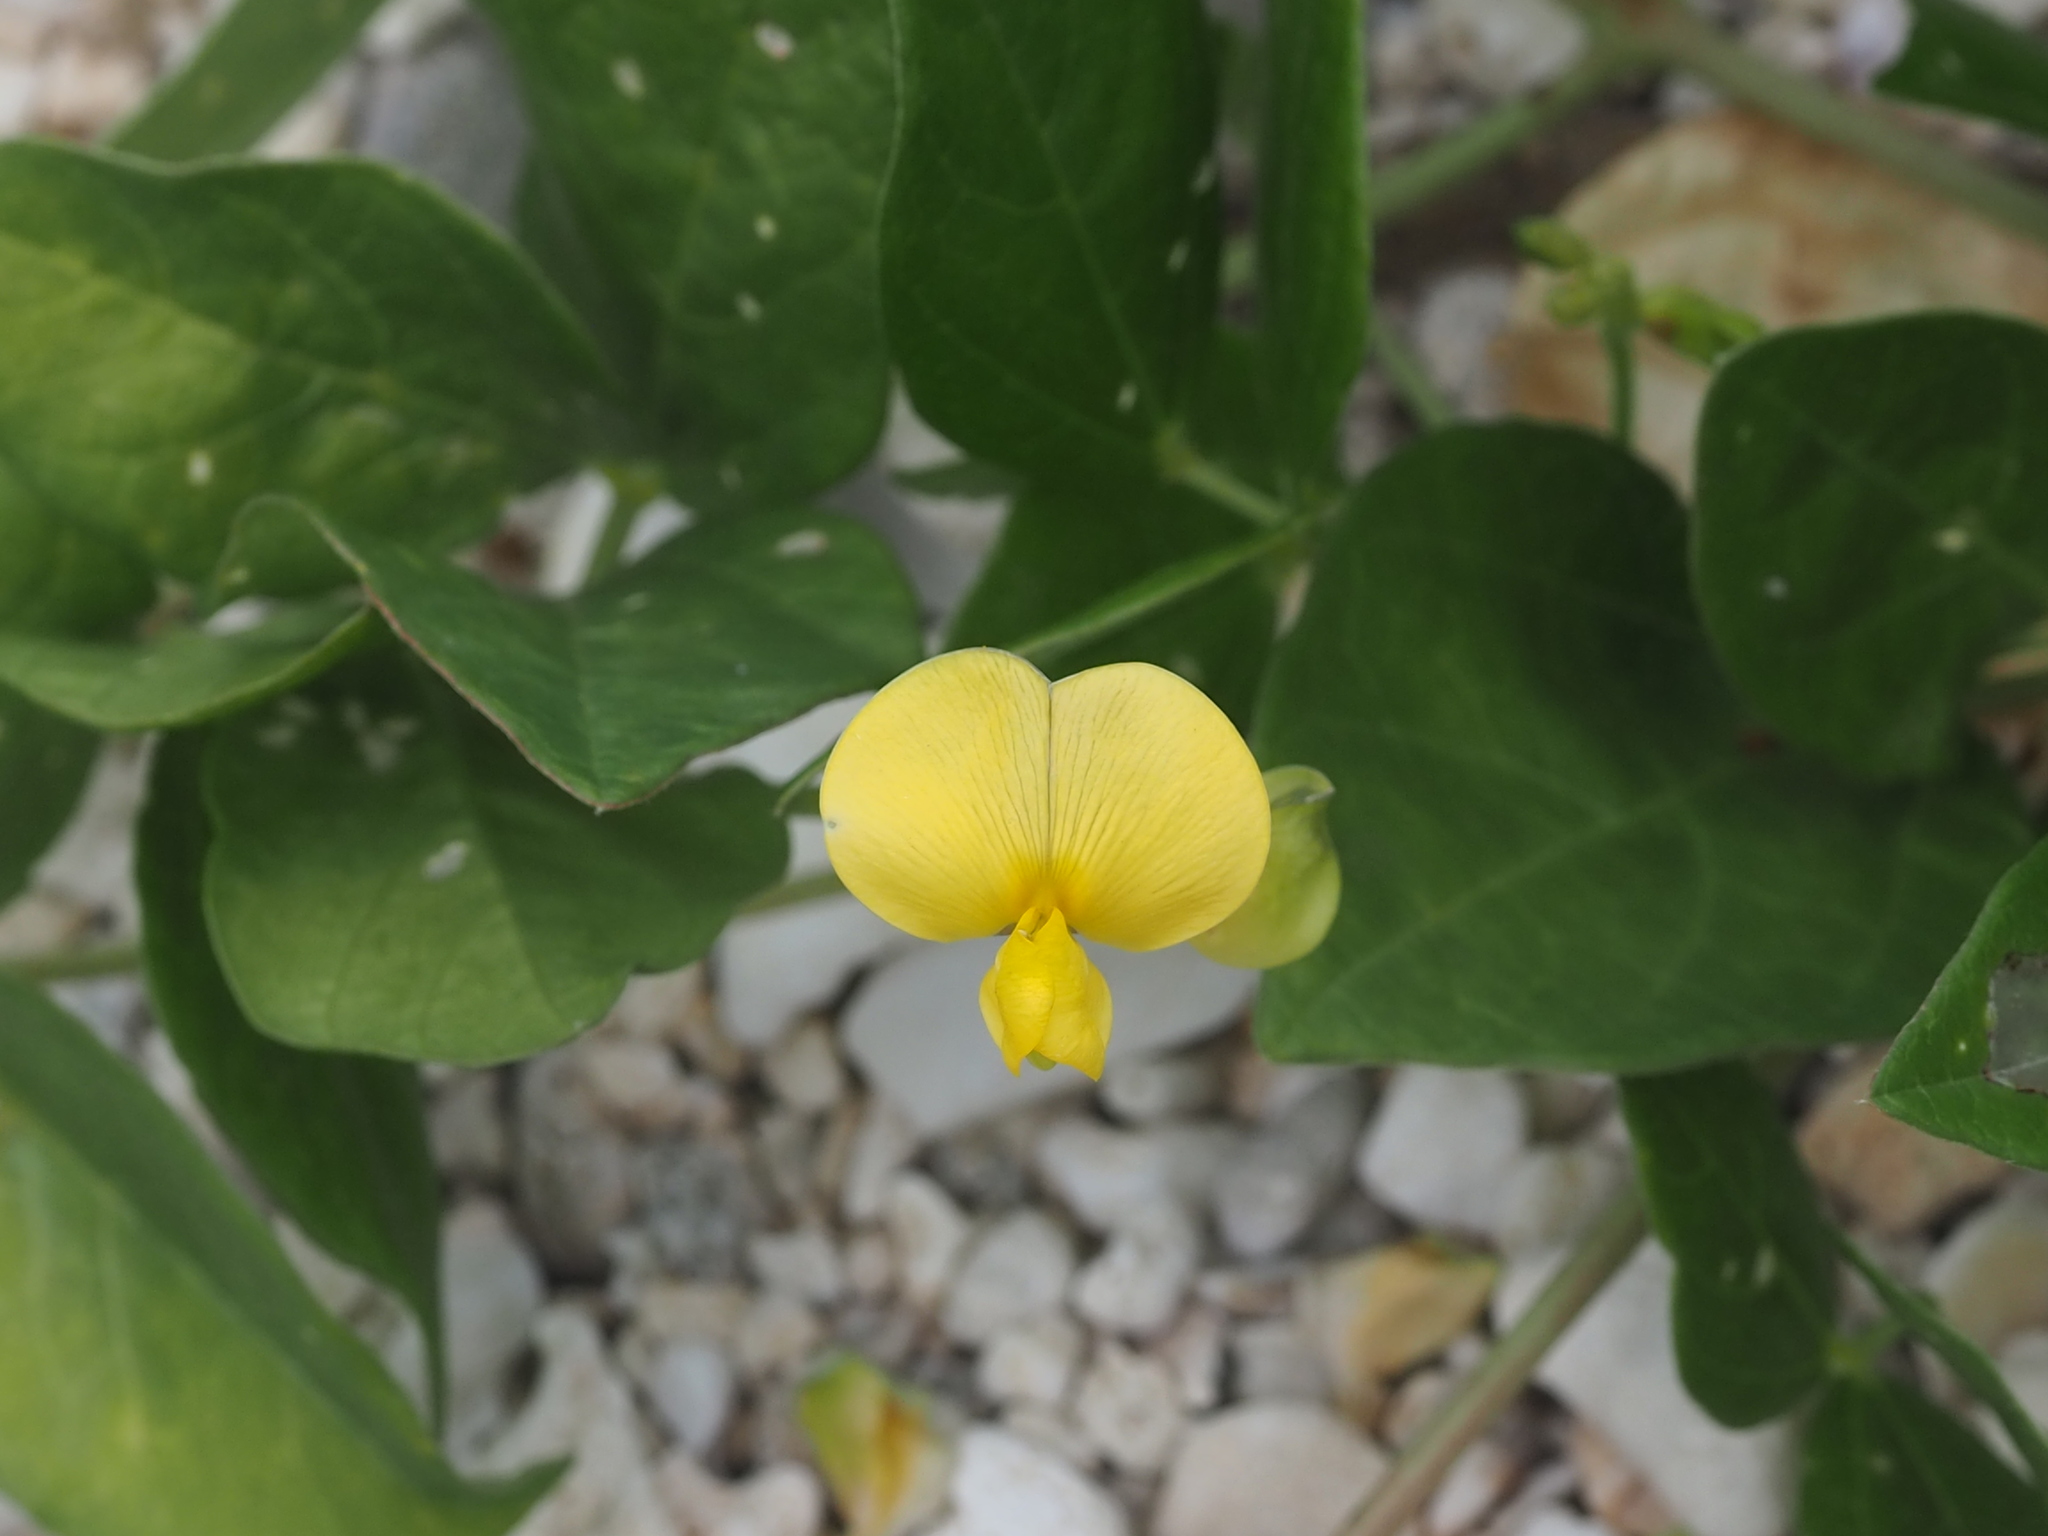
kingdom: Plantae
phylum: Tracheophyta
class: Magnoliopsida
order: Fabales
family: Fabaceae
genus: Vigna
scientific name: Vigna marina
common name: Dune-bean
